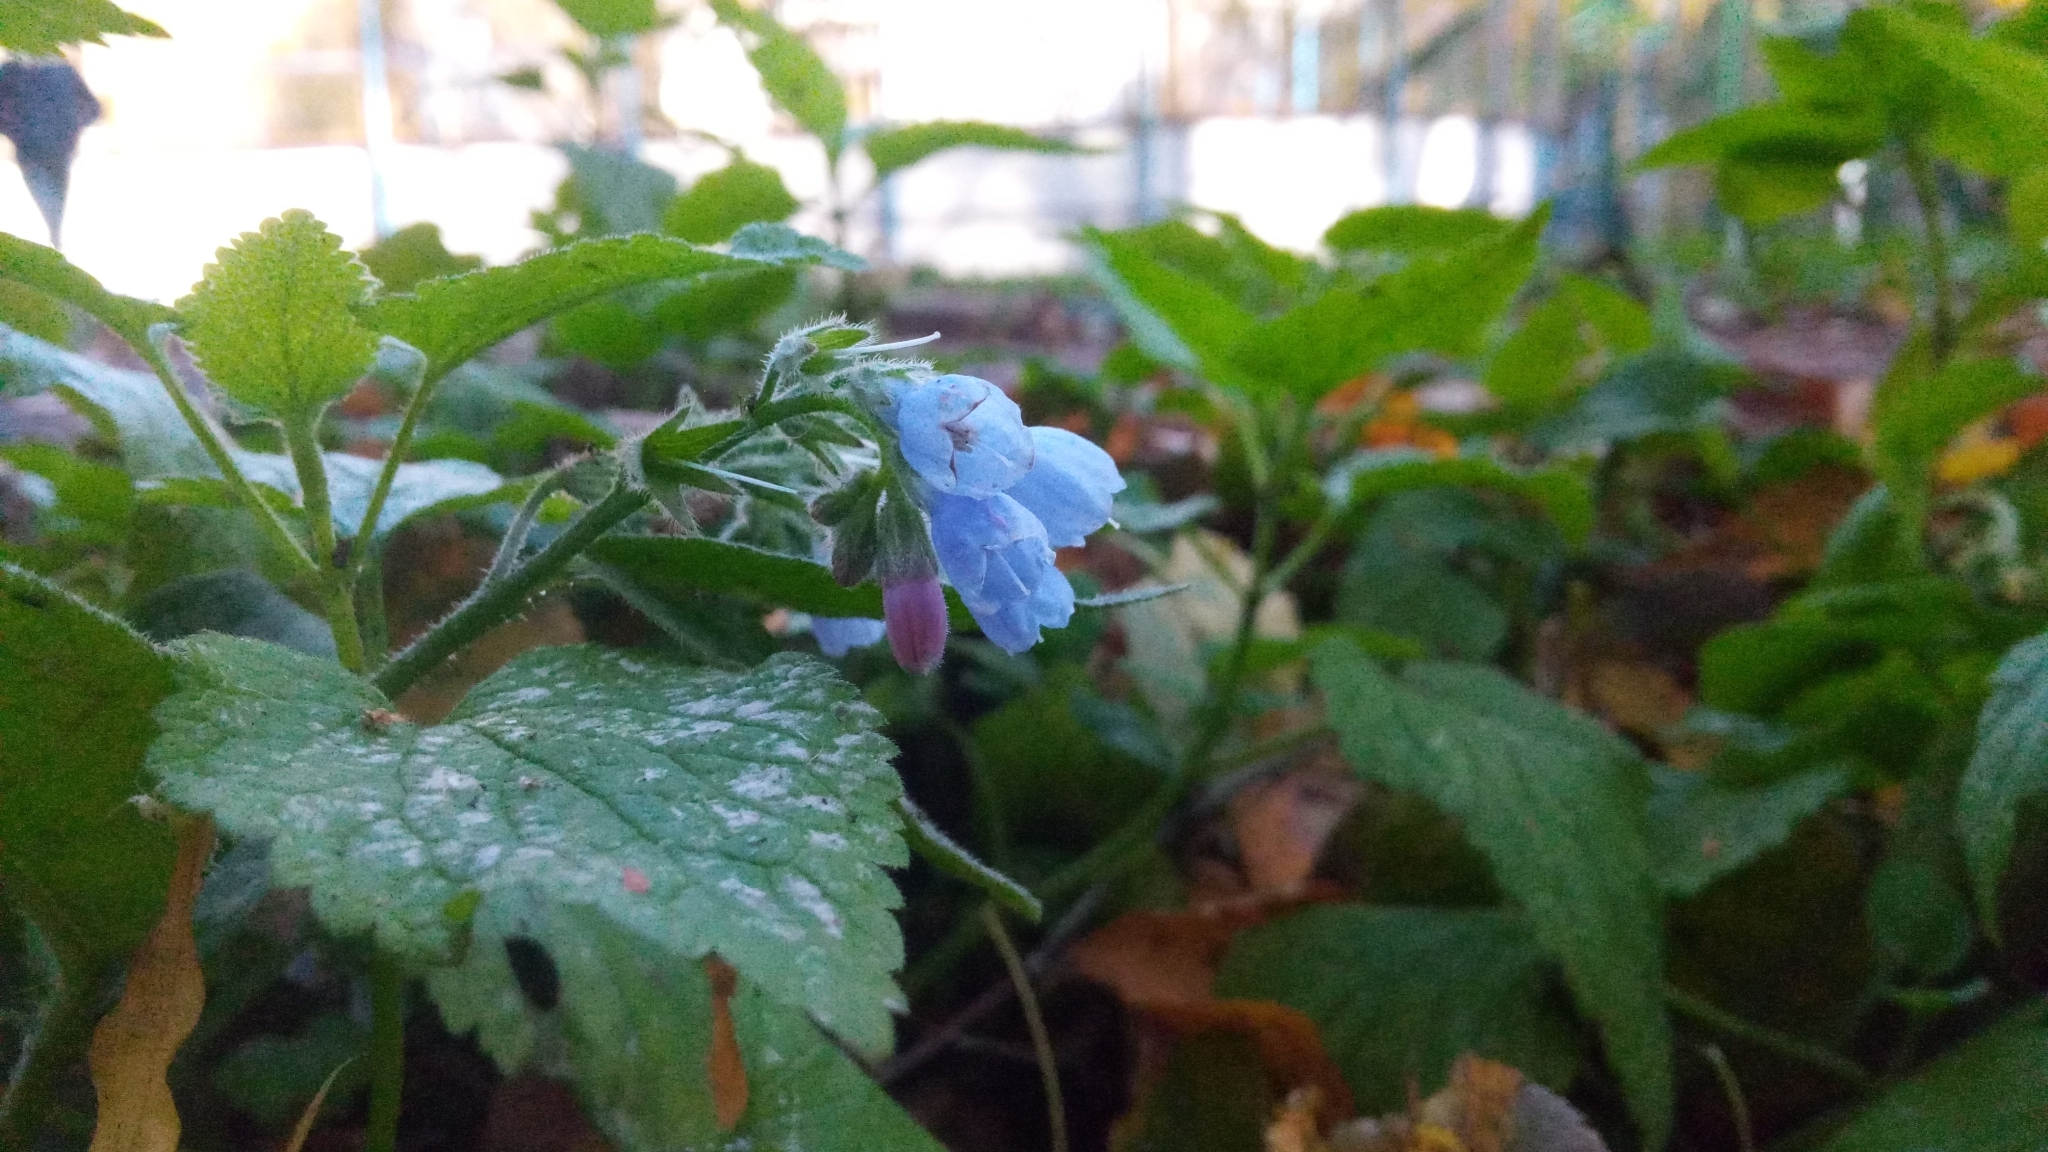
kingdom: Plantae
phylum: Tracheophyta
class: Magnoliopsida
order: Boraginales
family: Boraginaceae
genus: Symphytum
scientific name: Symphytum caucasicum
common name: Caucasian comfrey
